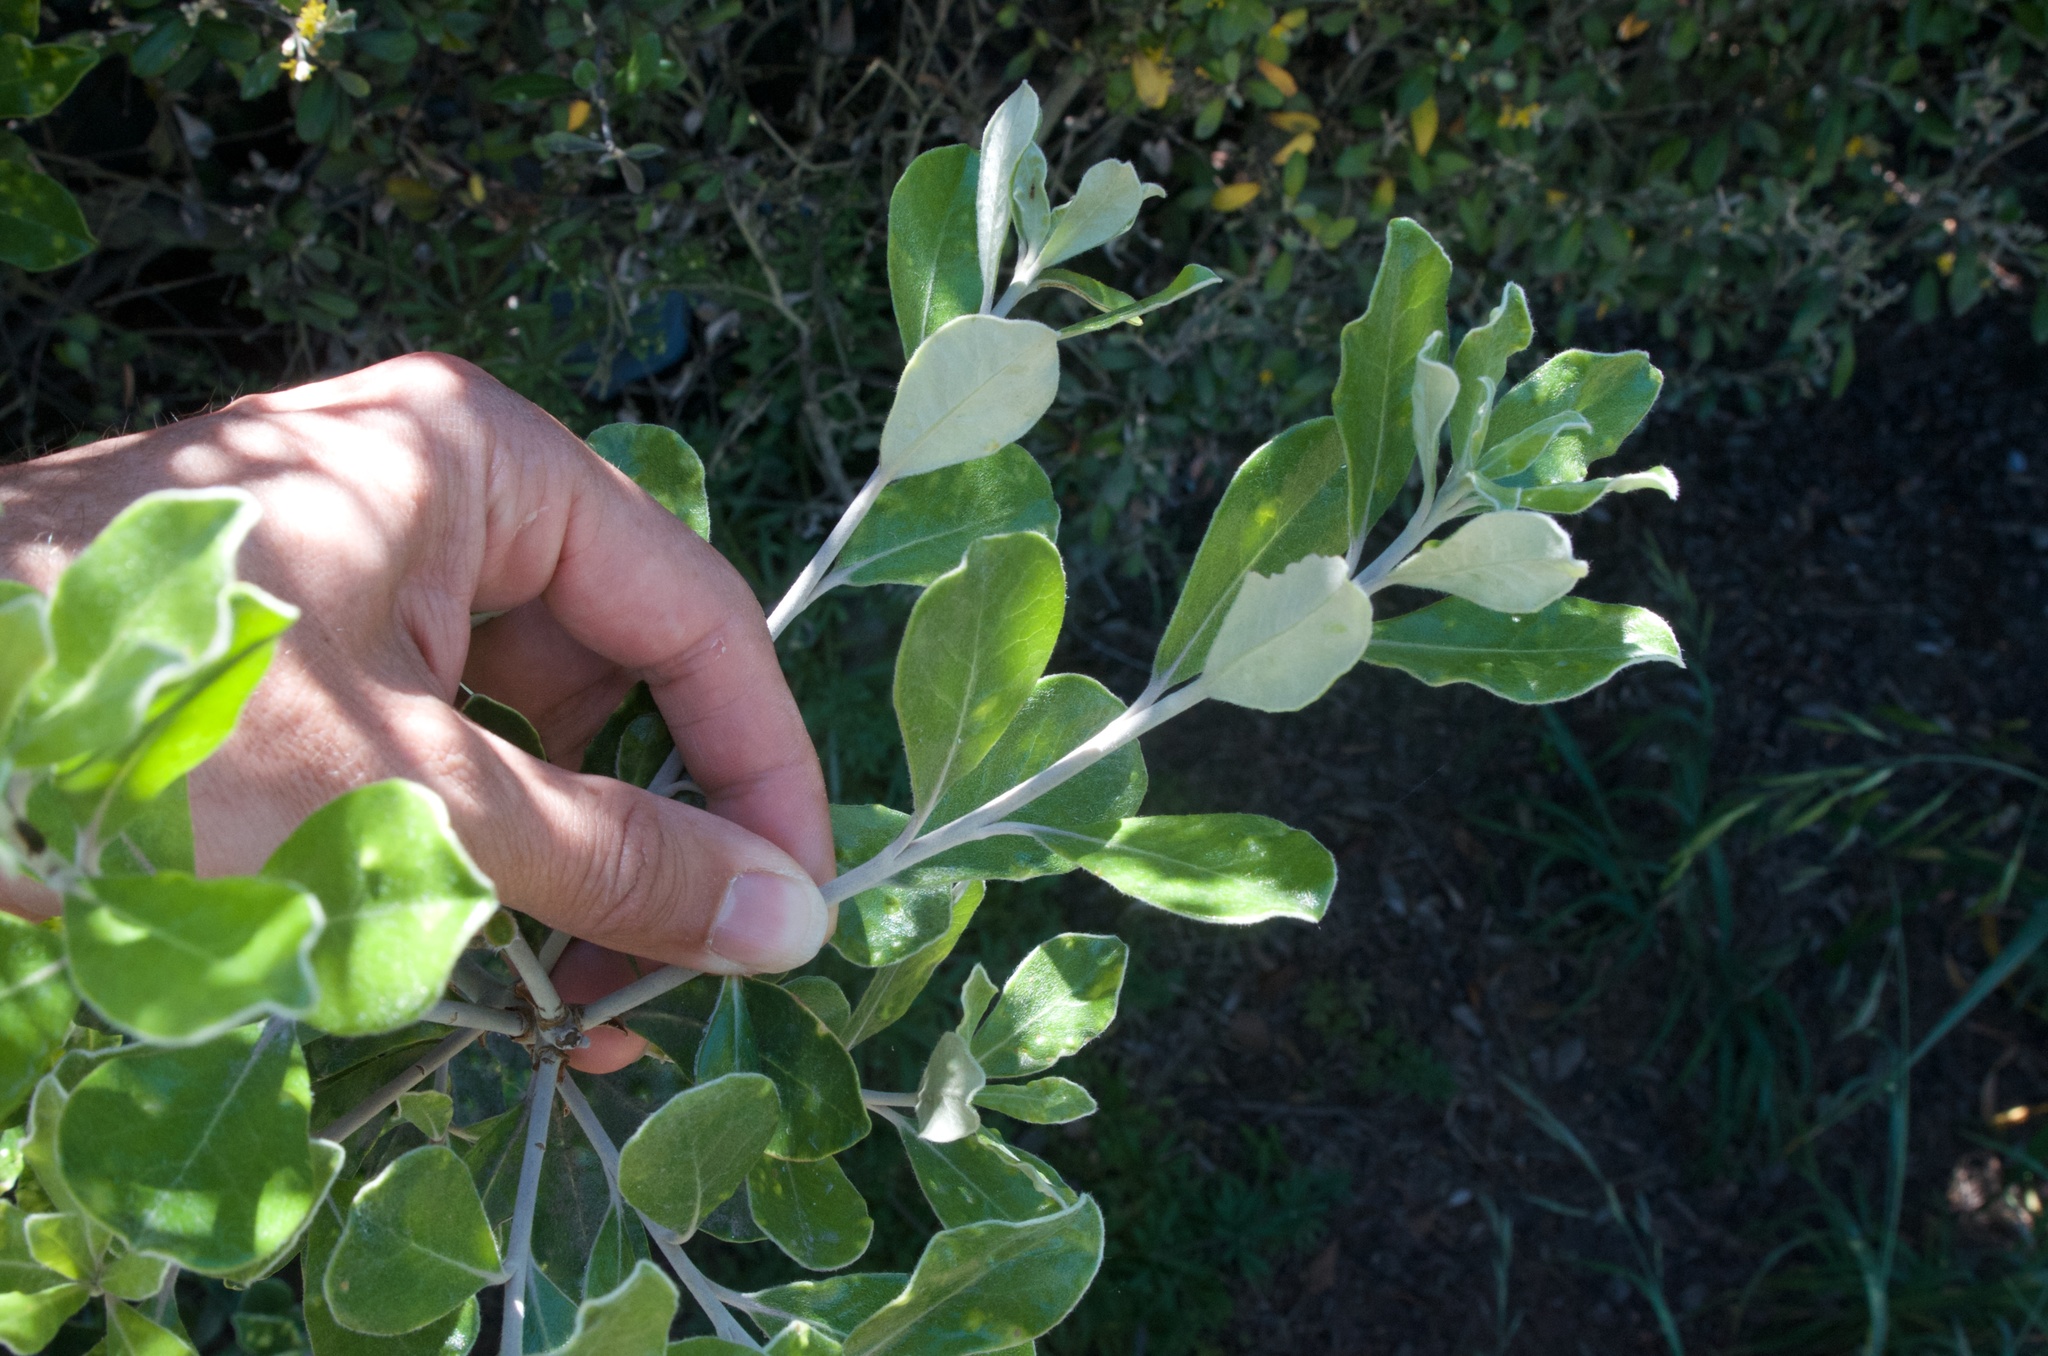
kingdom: Plantae
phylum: Tracheophyta
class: Magnoliopsida
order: Apiales
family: Pittosporaceae
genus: Pittosporum
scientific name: Pittosporum crassifolium
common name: Karo
